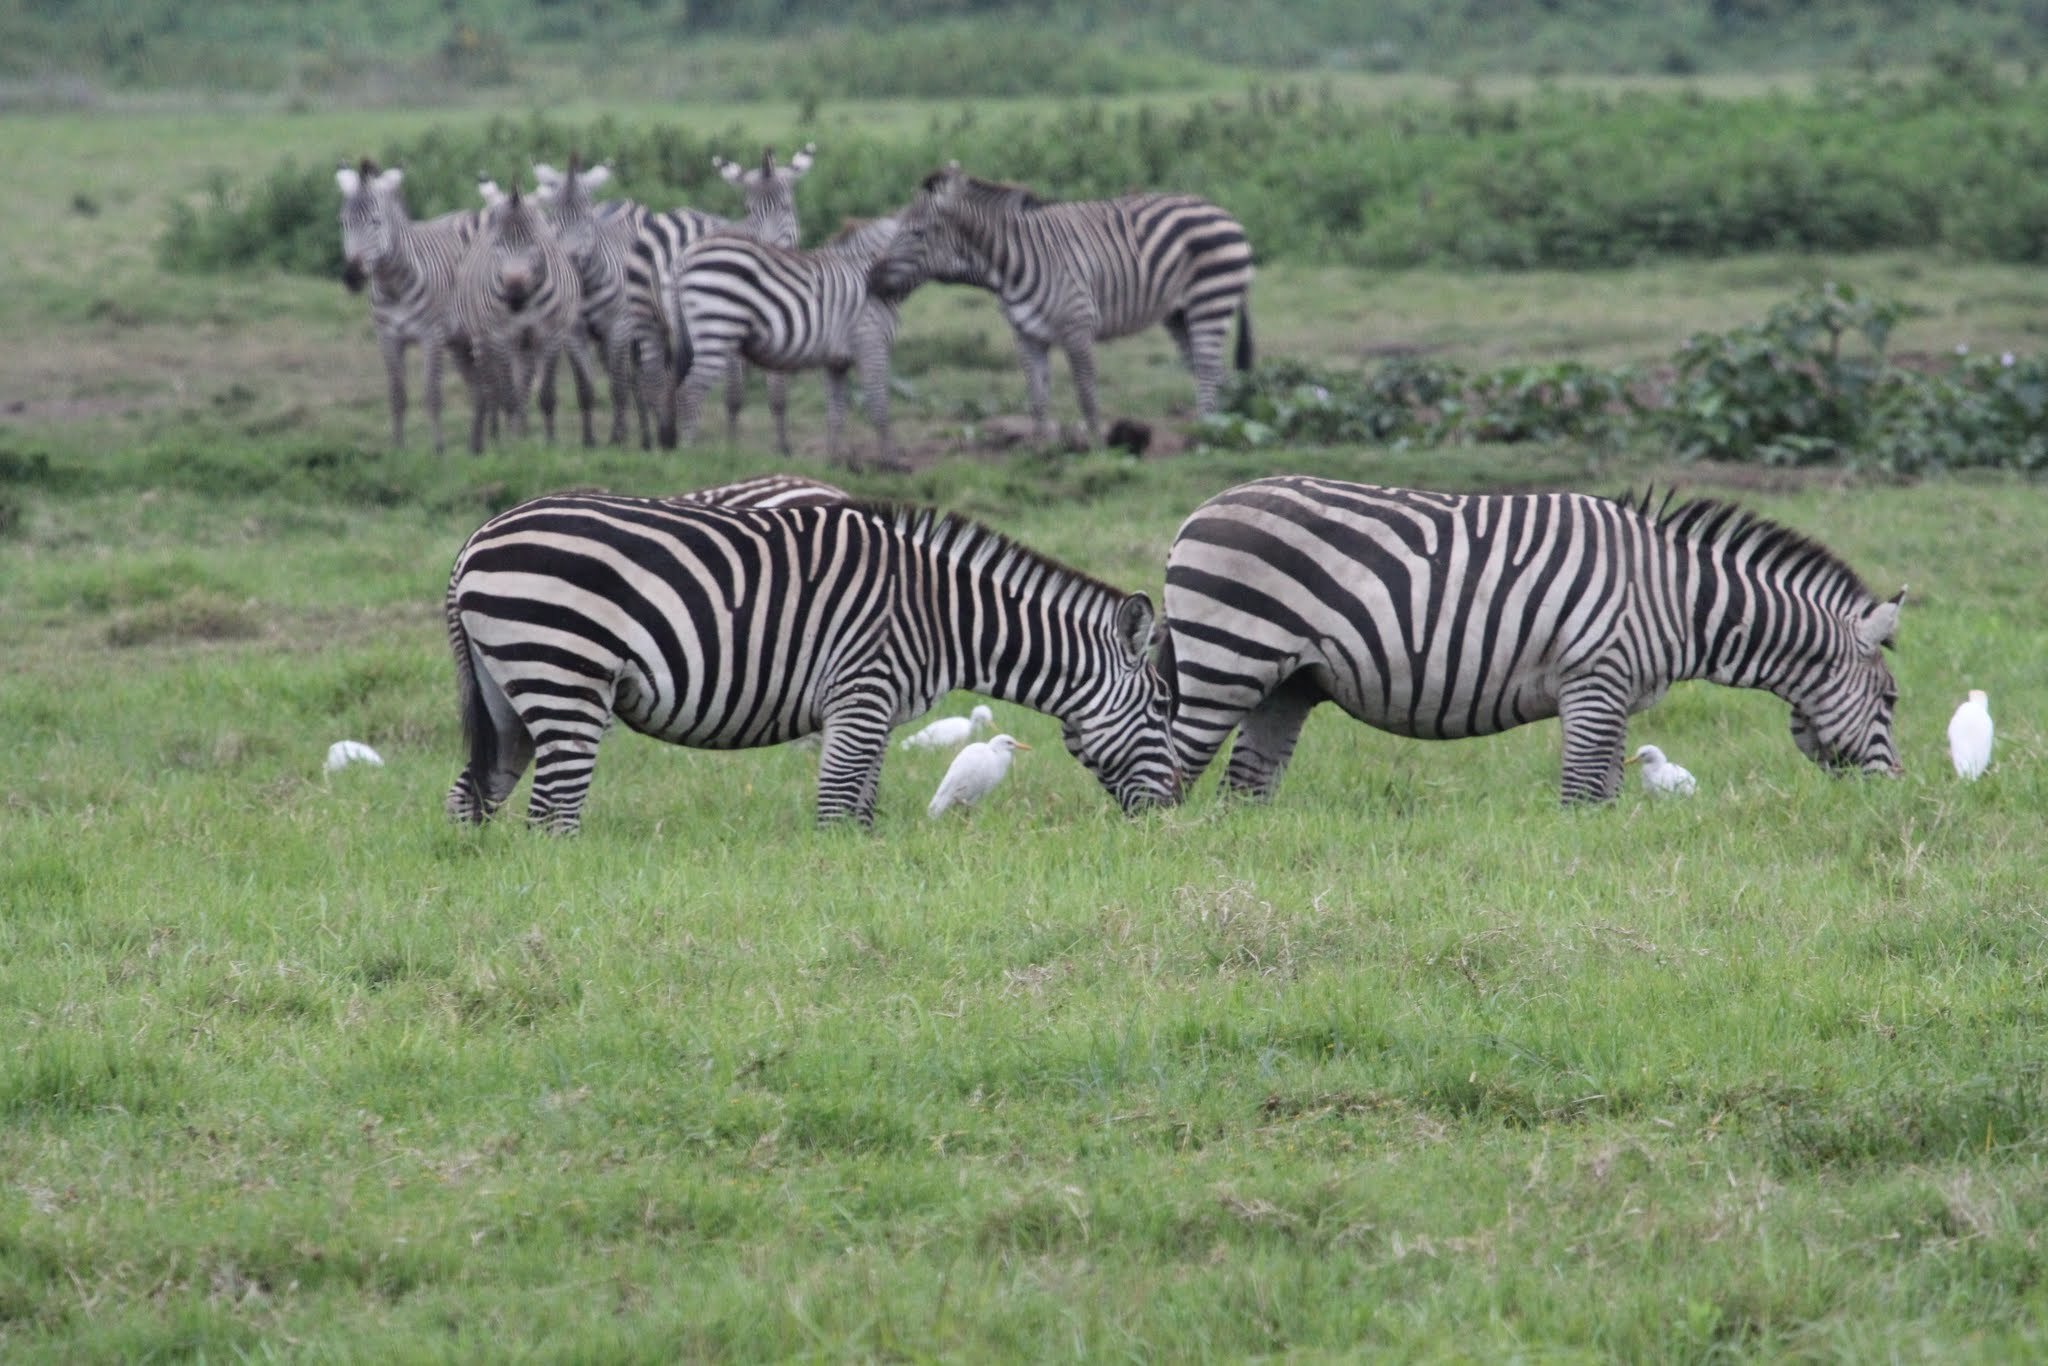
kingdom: Animalia
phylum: Chordata
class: Aves
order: Pelecaniformes
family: Ardeidae
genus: Bubulcus
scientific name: Bubulcus ibis
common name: Cattle egret
